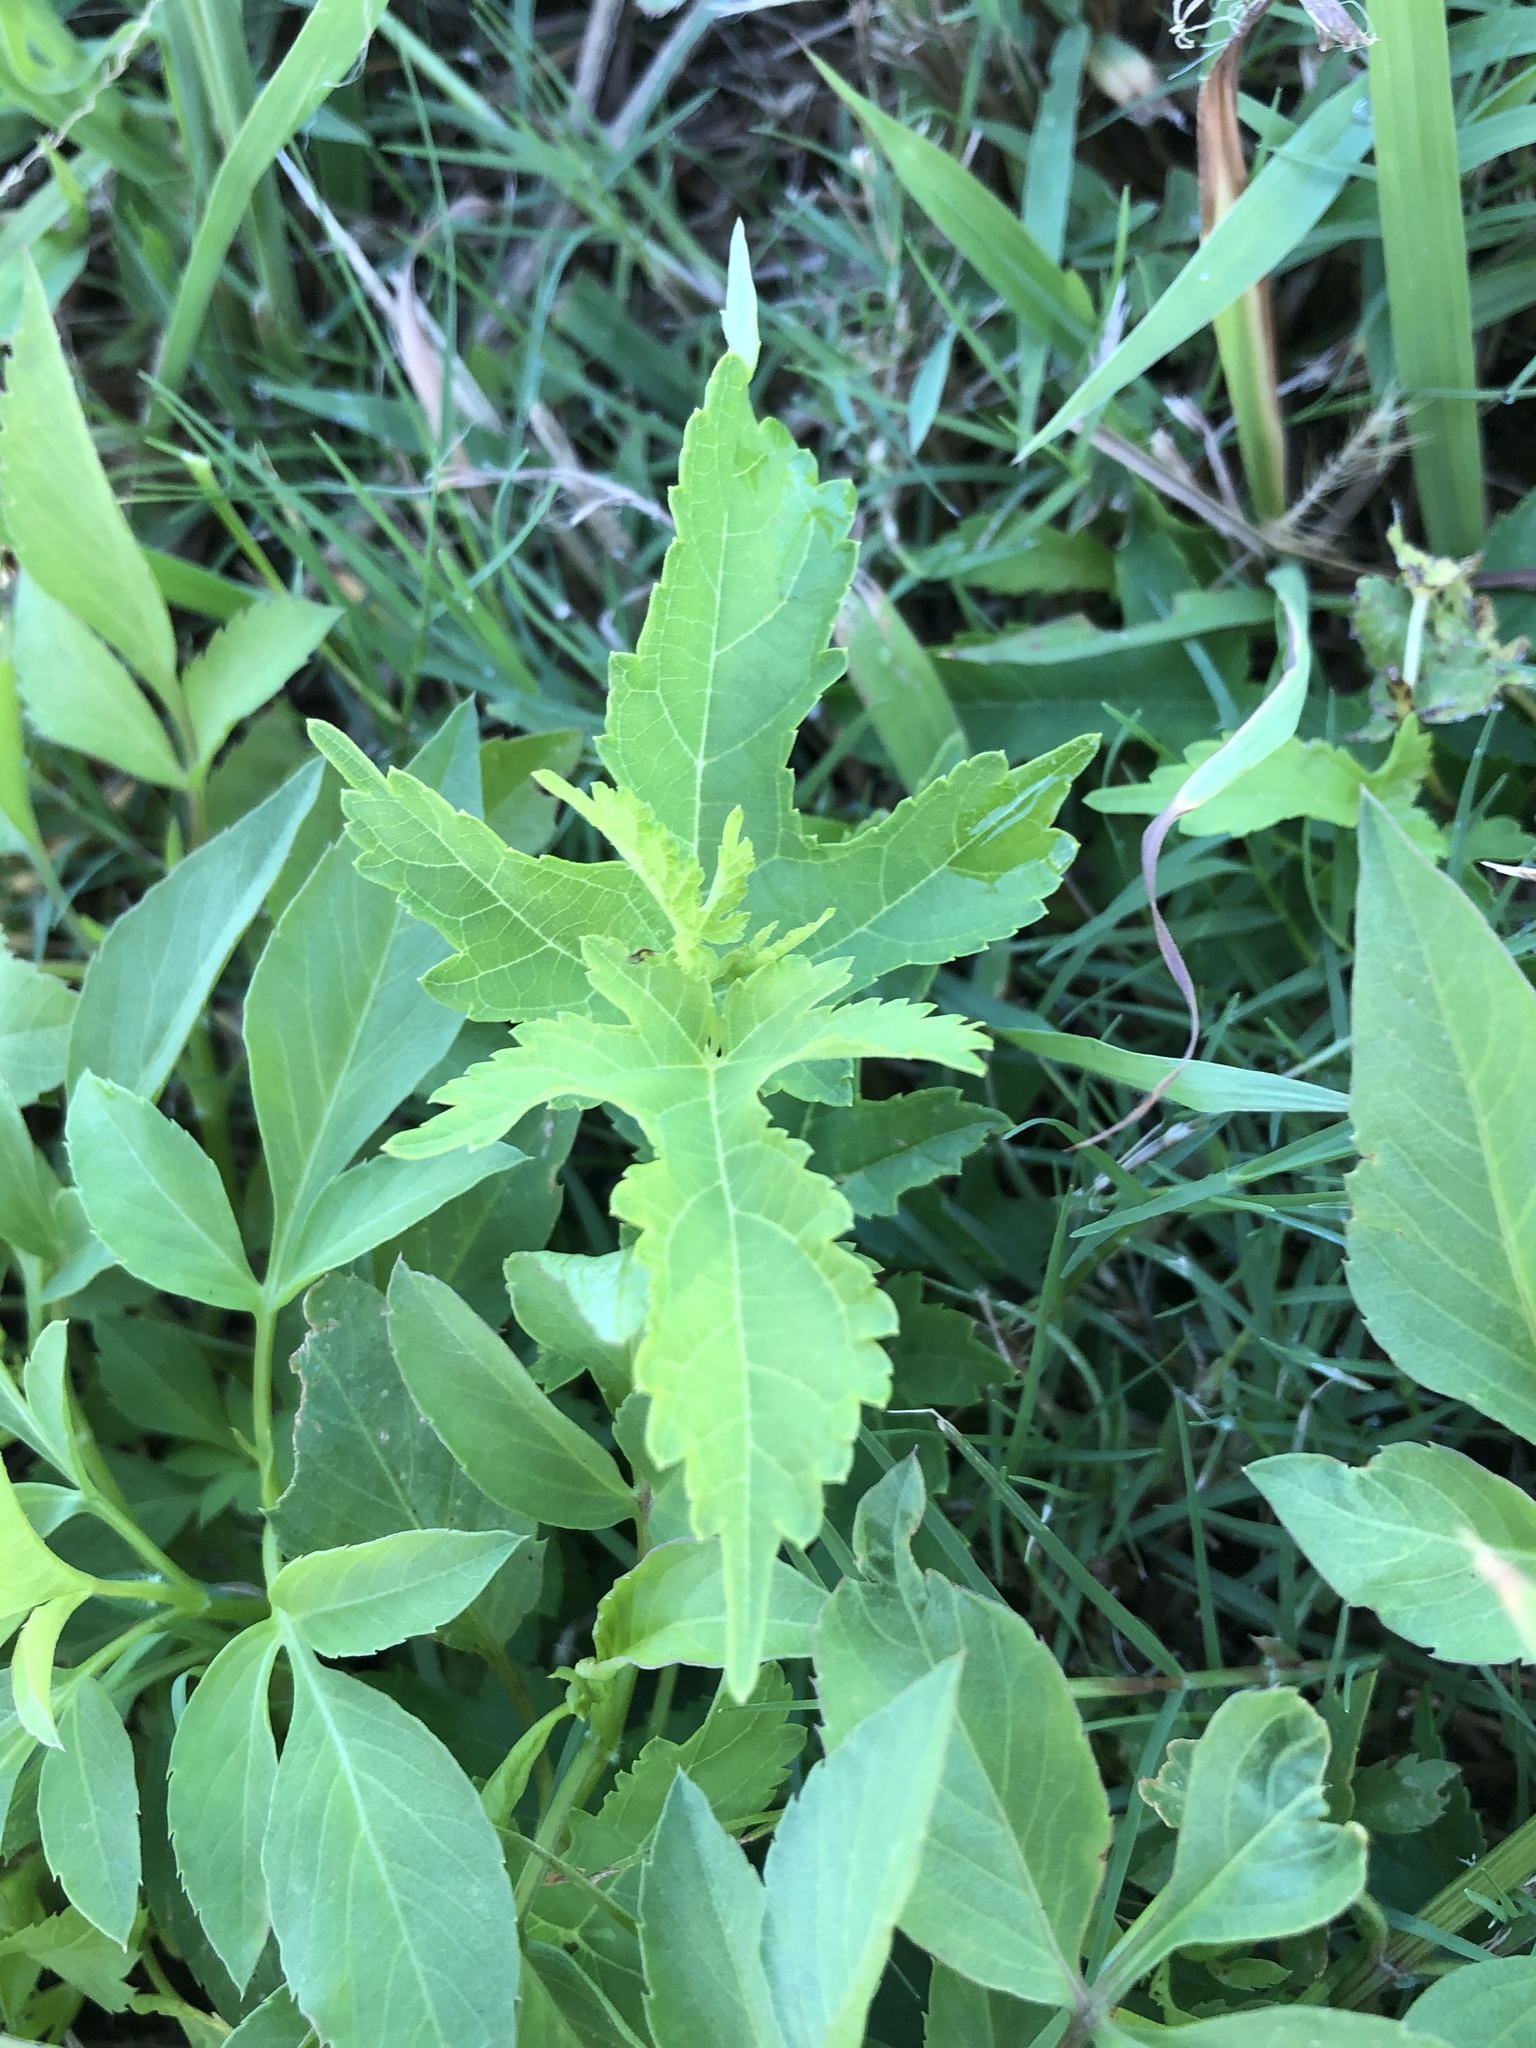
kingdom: Plantae
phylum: Tracheophyta
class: Magnoliopsida
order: Rosales
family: Moraceae
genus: Morus
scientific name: Morus indica
